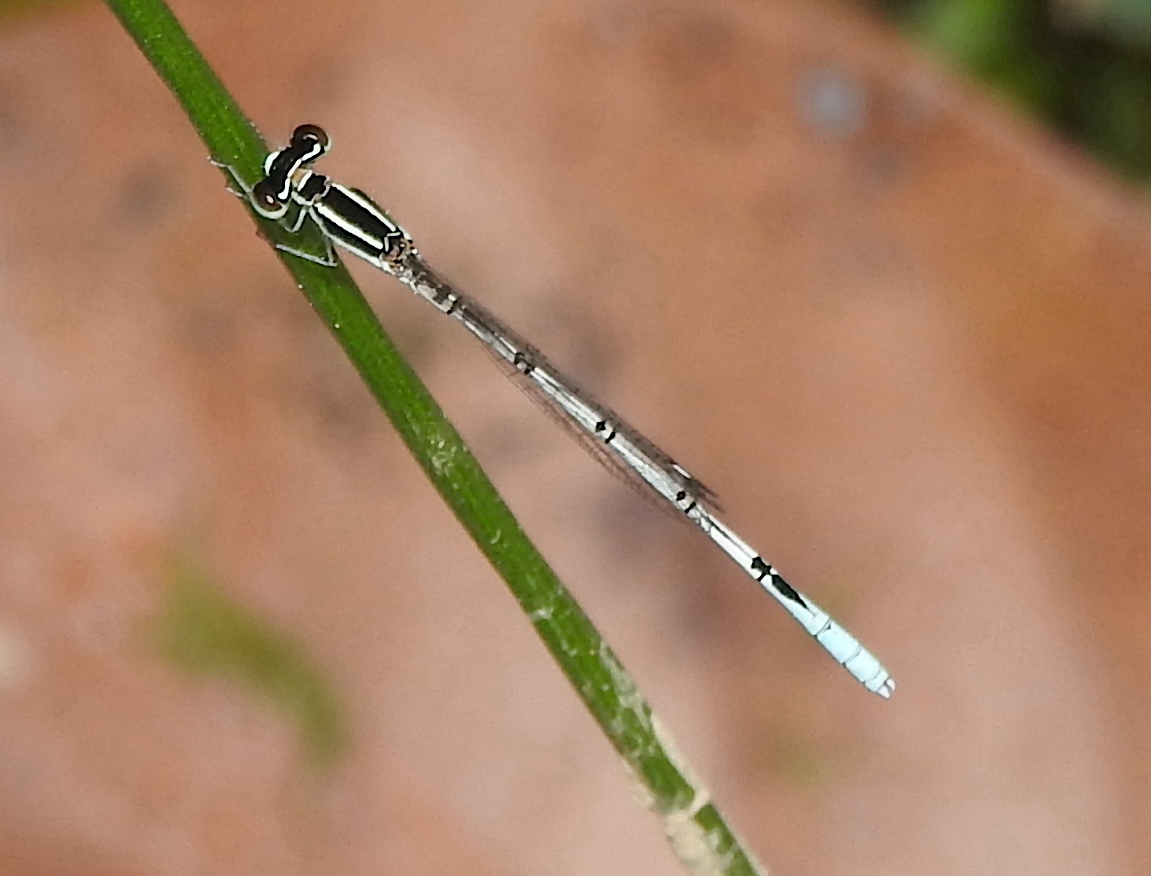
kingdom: Animalia
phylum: Arthropoda
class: Insecta
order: Odonata
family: Coenagrionidae
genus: Agriocnemis
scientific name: Agriocnemis pieris
